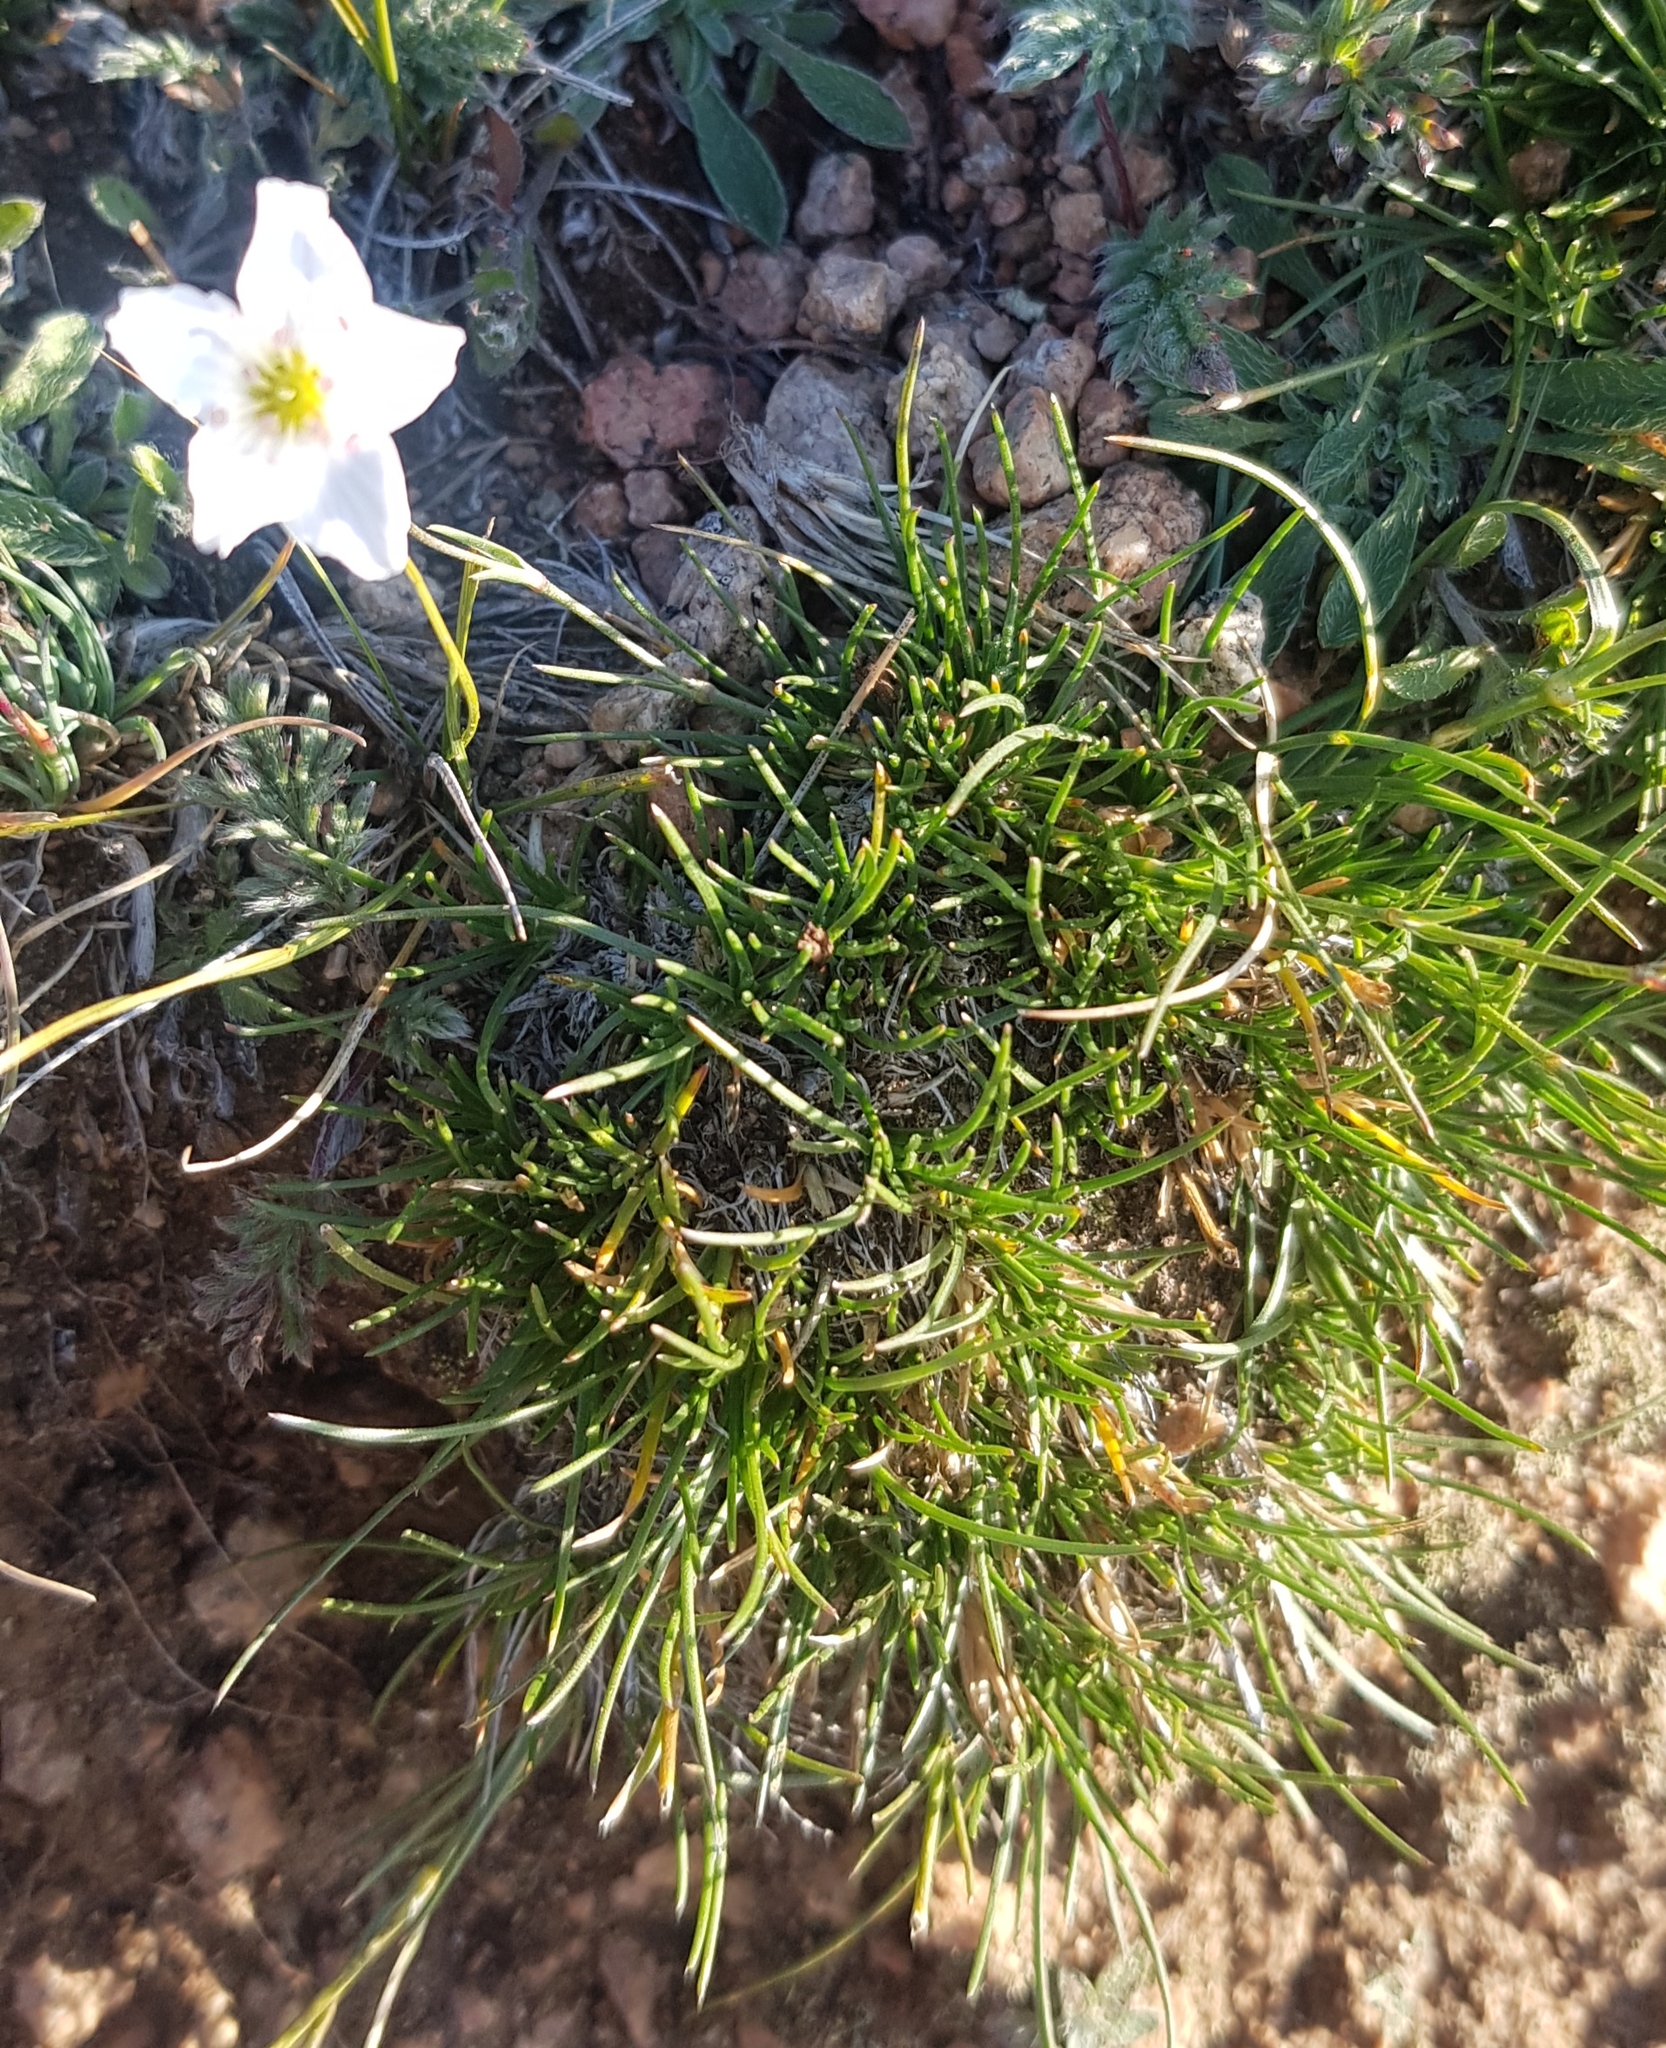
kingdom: Plantae
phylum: Tracheophyta
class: Magnoliopsida
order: Caryophyllales
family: Caryophyllaceae
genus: Eremogone
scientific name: Eremogone meyeri
